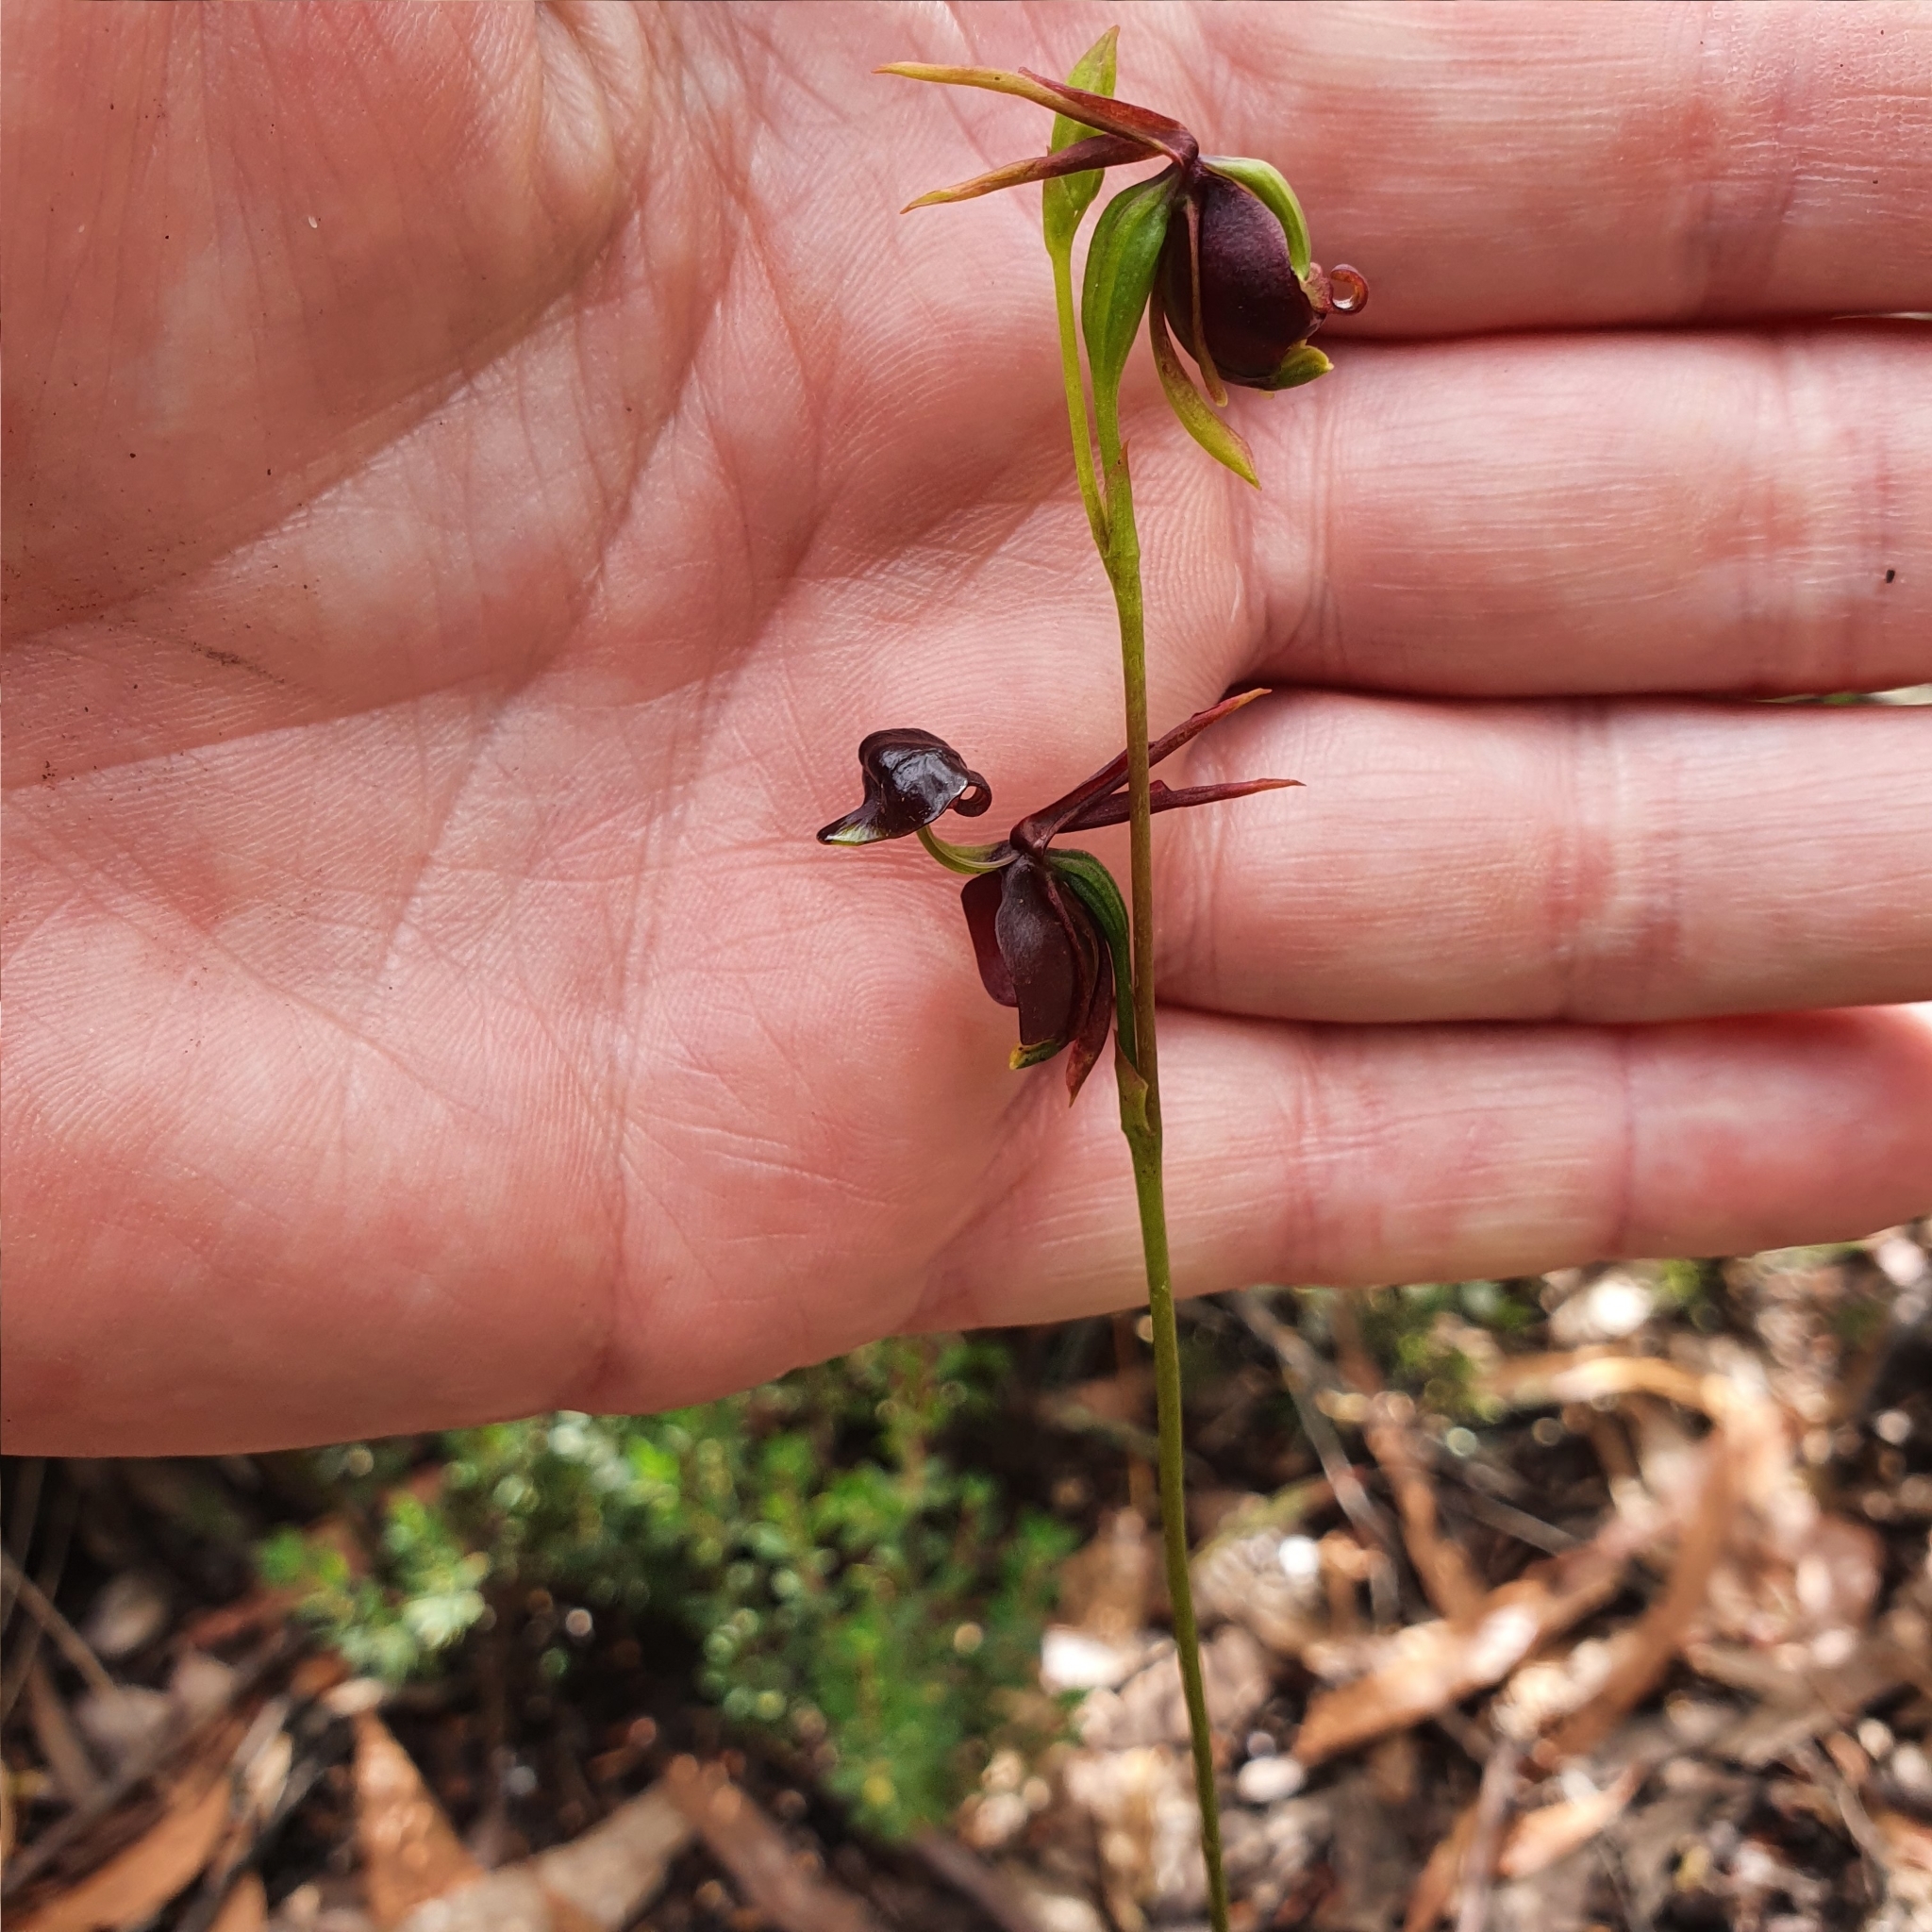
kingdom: Plantae
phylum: Tracheophyta
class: Liliopsida
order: Asparagales
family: Orchidaceae
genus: Caleana
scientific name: Caleana major
